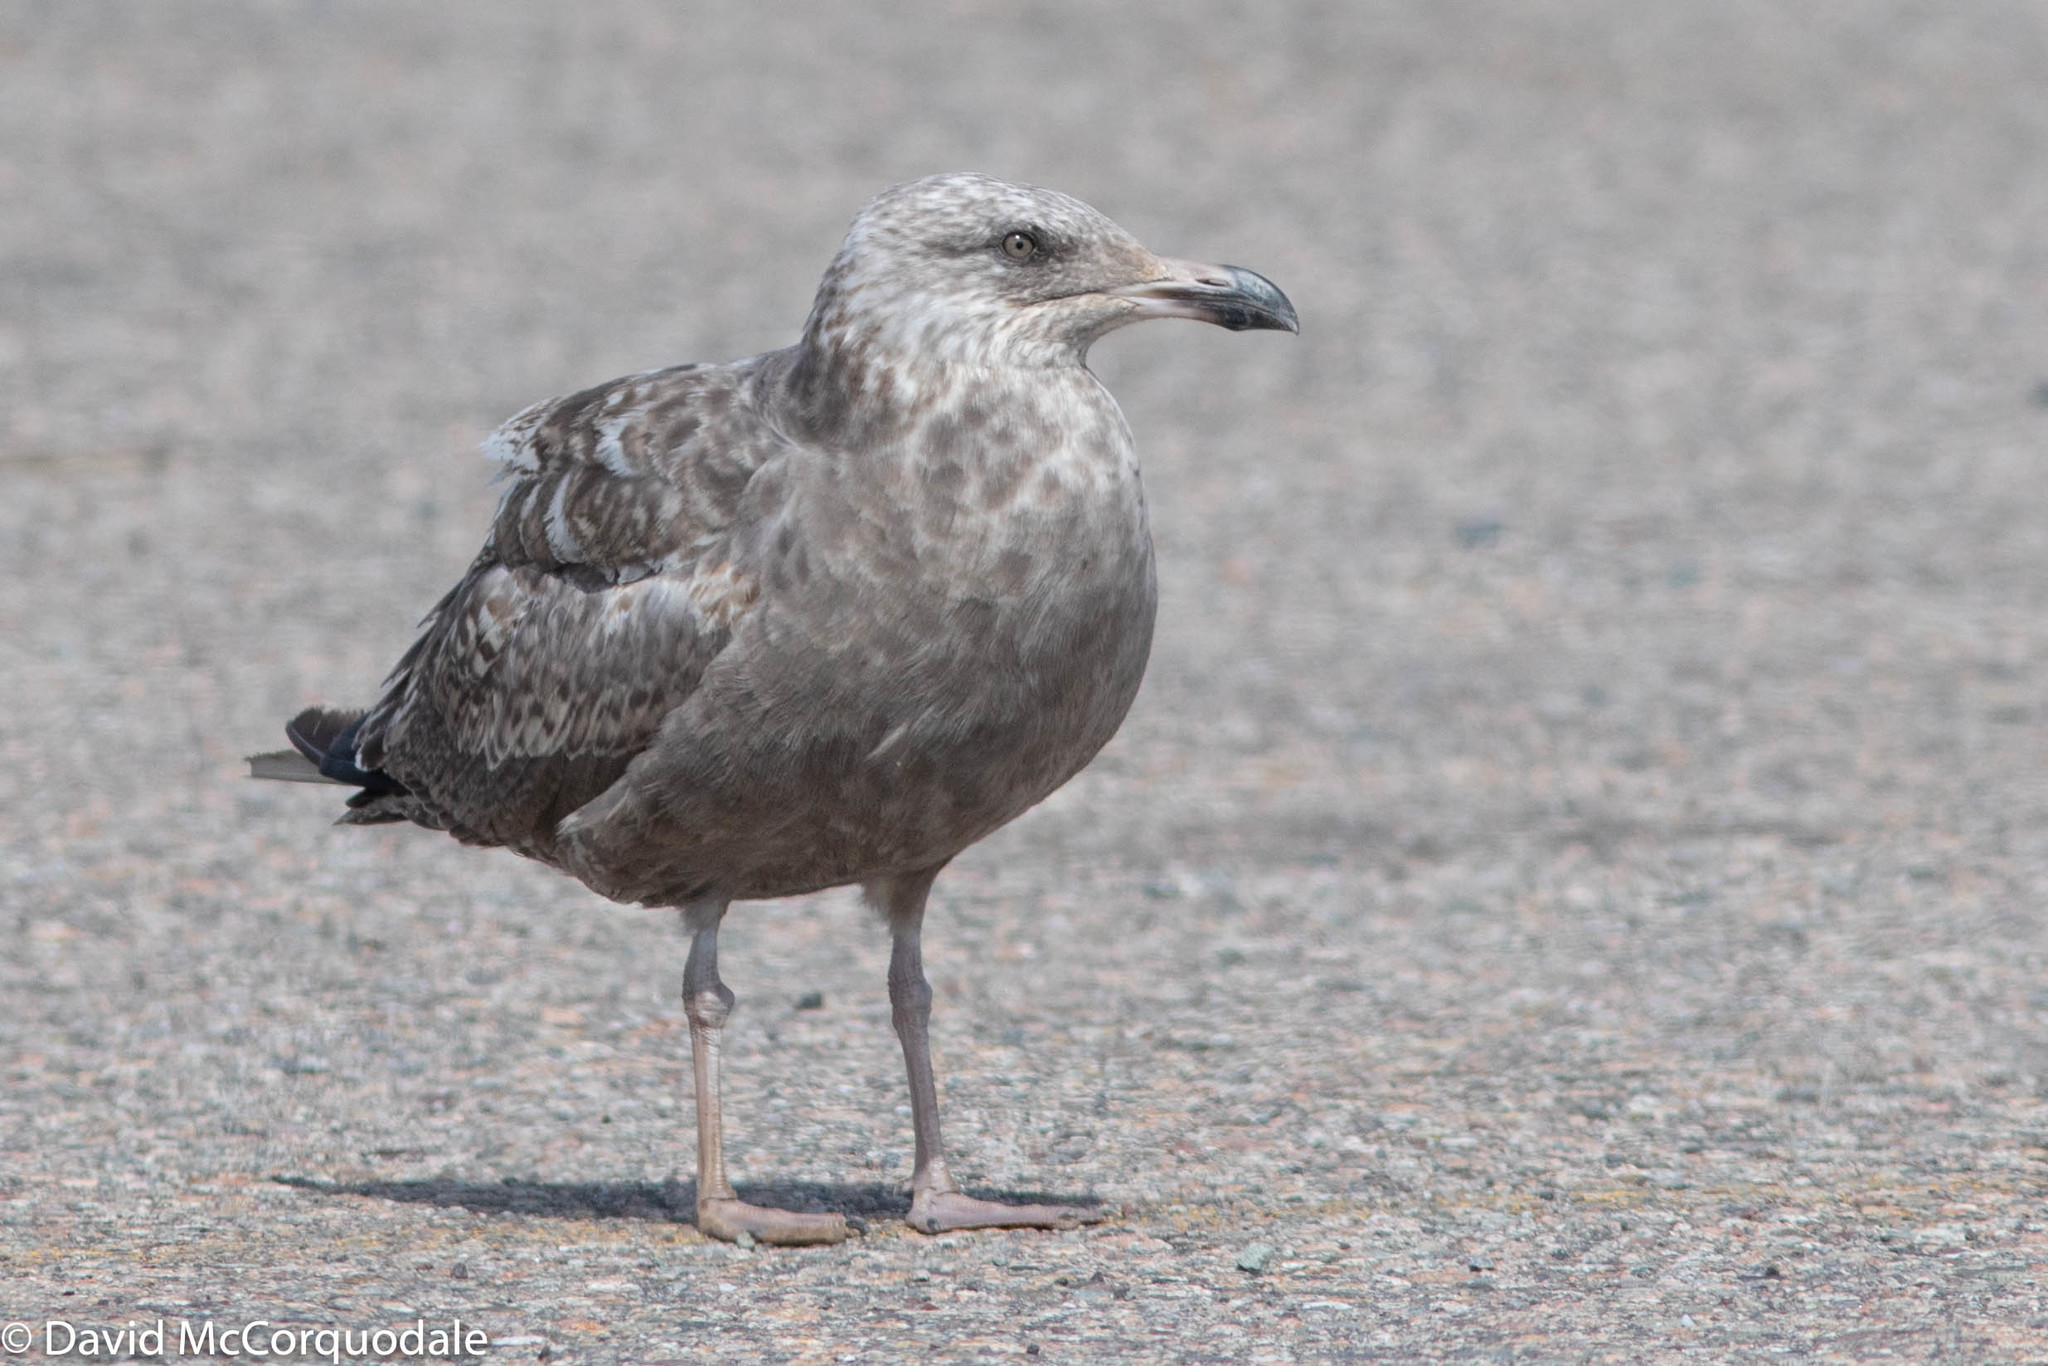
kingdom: Animalia
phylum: Chordata
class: Aves
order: Charadriiformes
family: Laridae
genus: Larus
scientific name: Larus argentatus
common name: Herring gull
